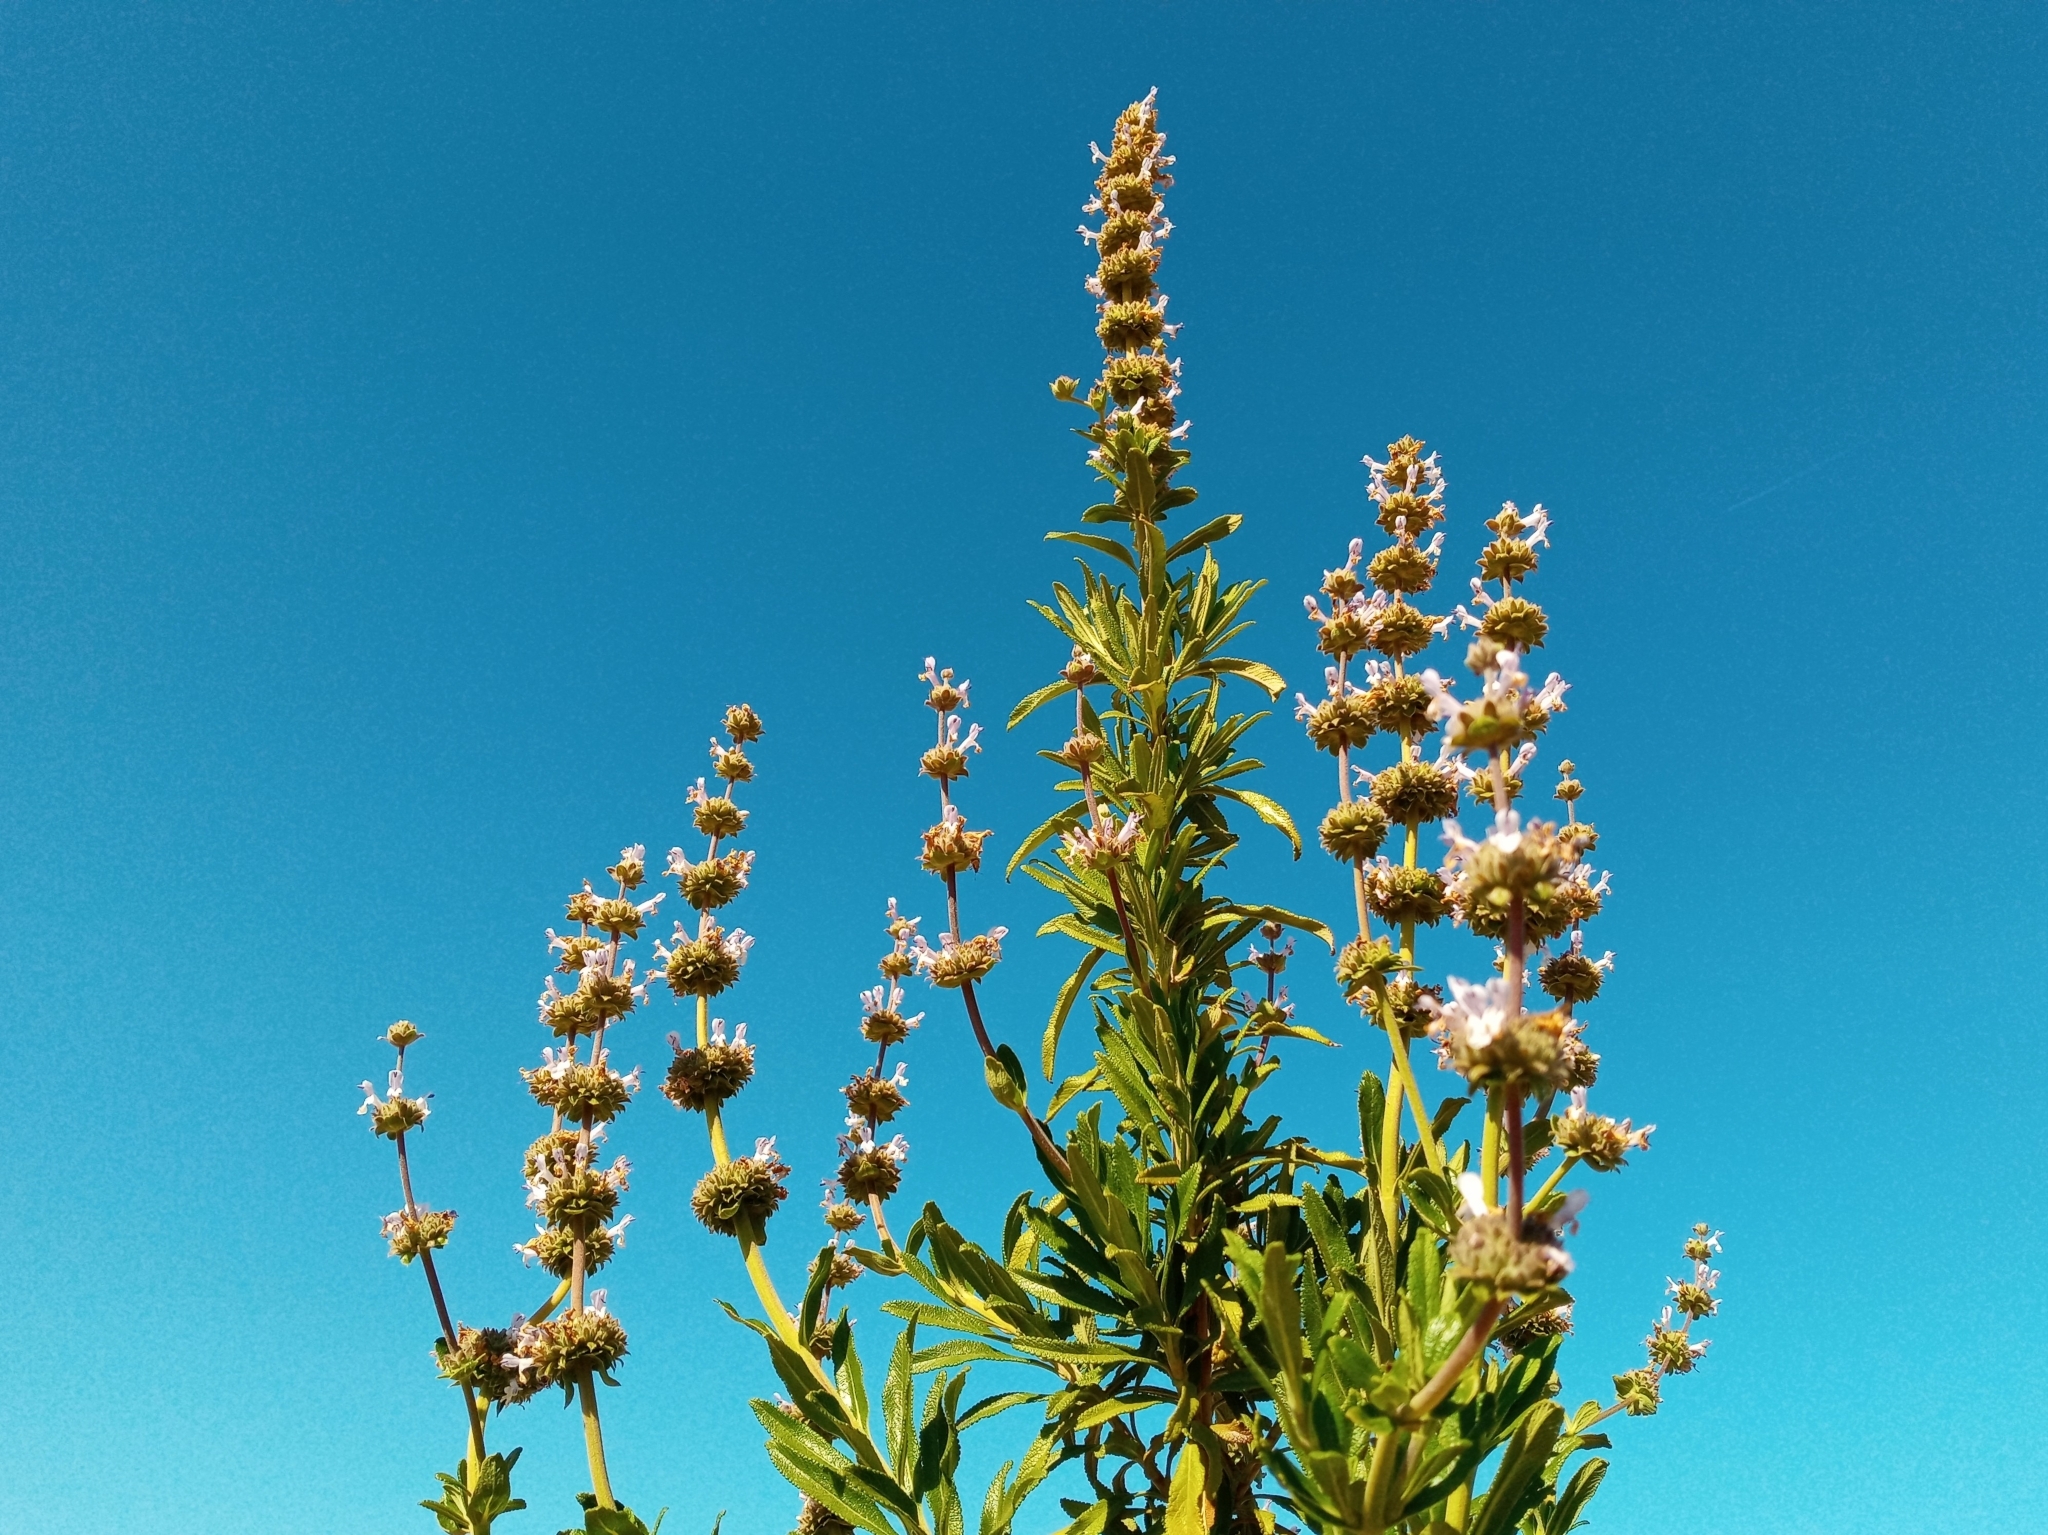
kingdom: Plantae
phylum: Tracheophyta
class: Magnoliopsida
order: Lamiales
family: Lamiaceae
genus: Salvia
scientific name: Salvia mellifera
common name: Black sage
